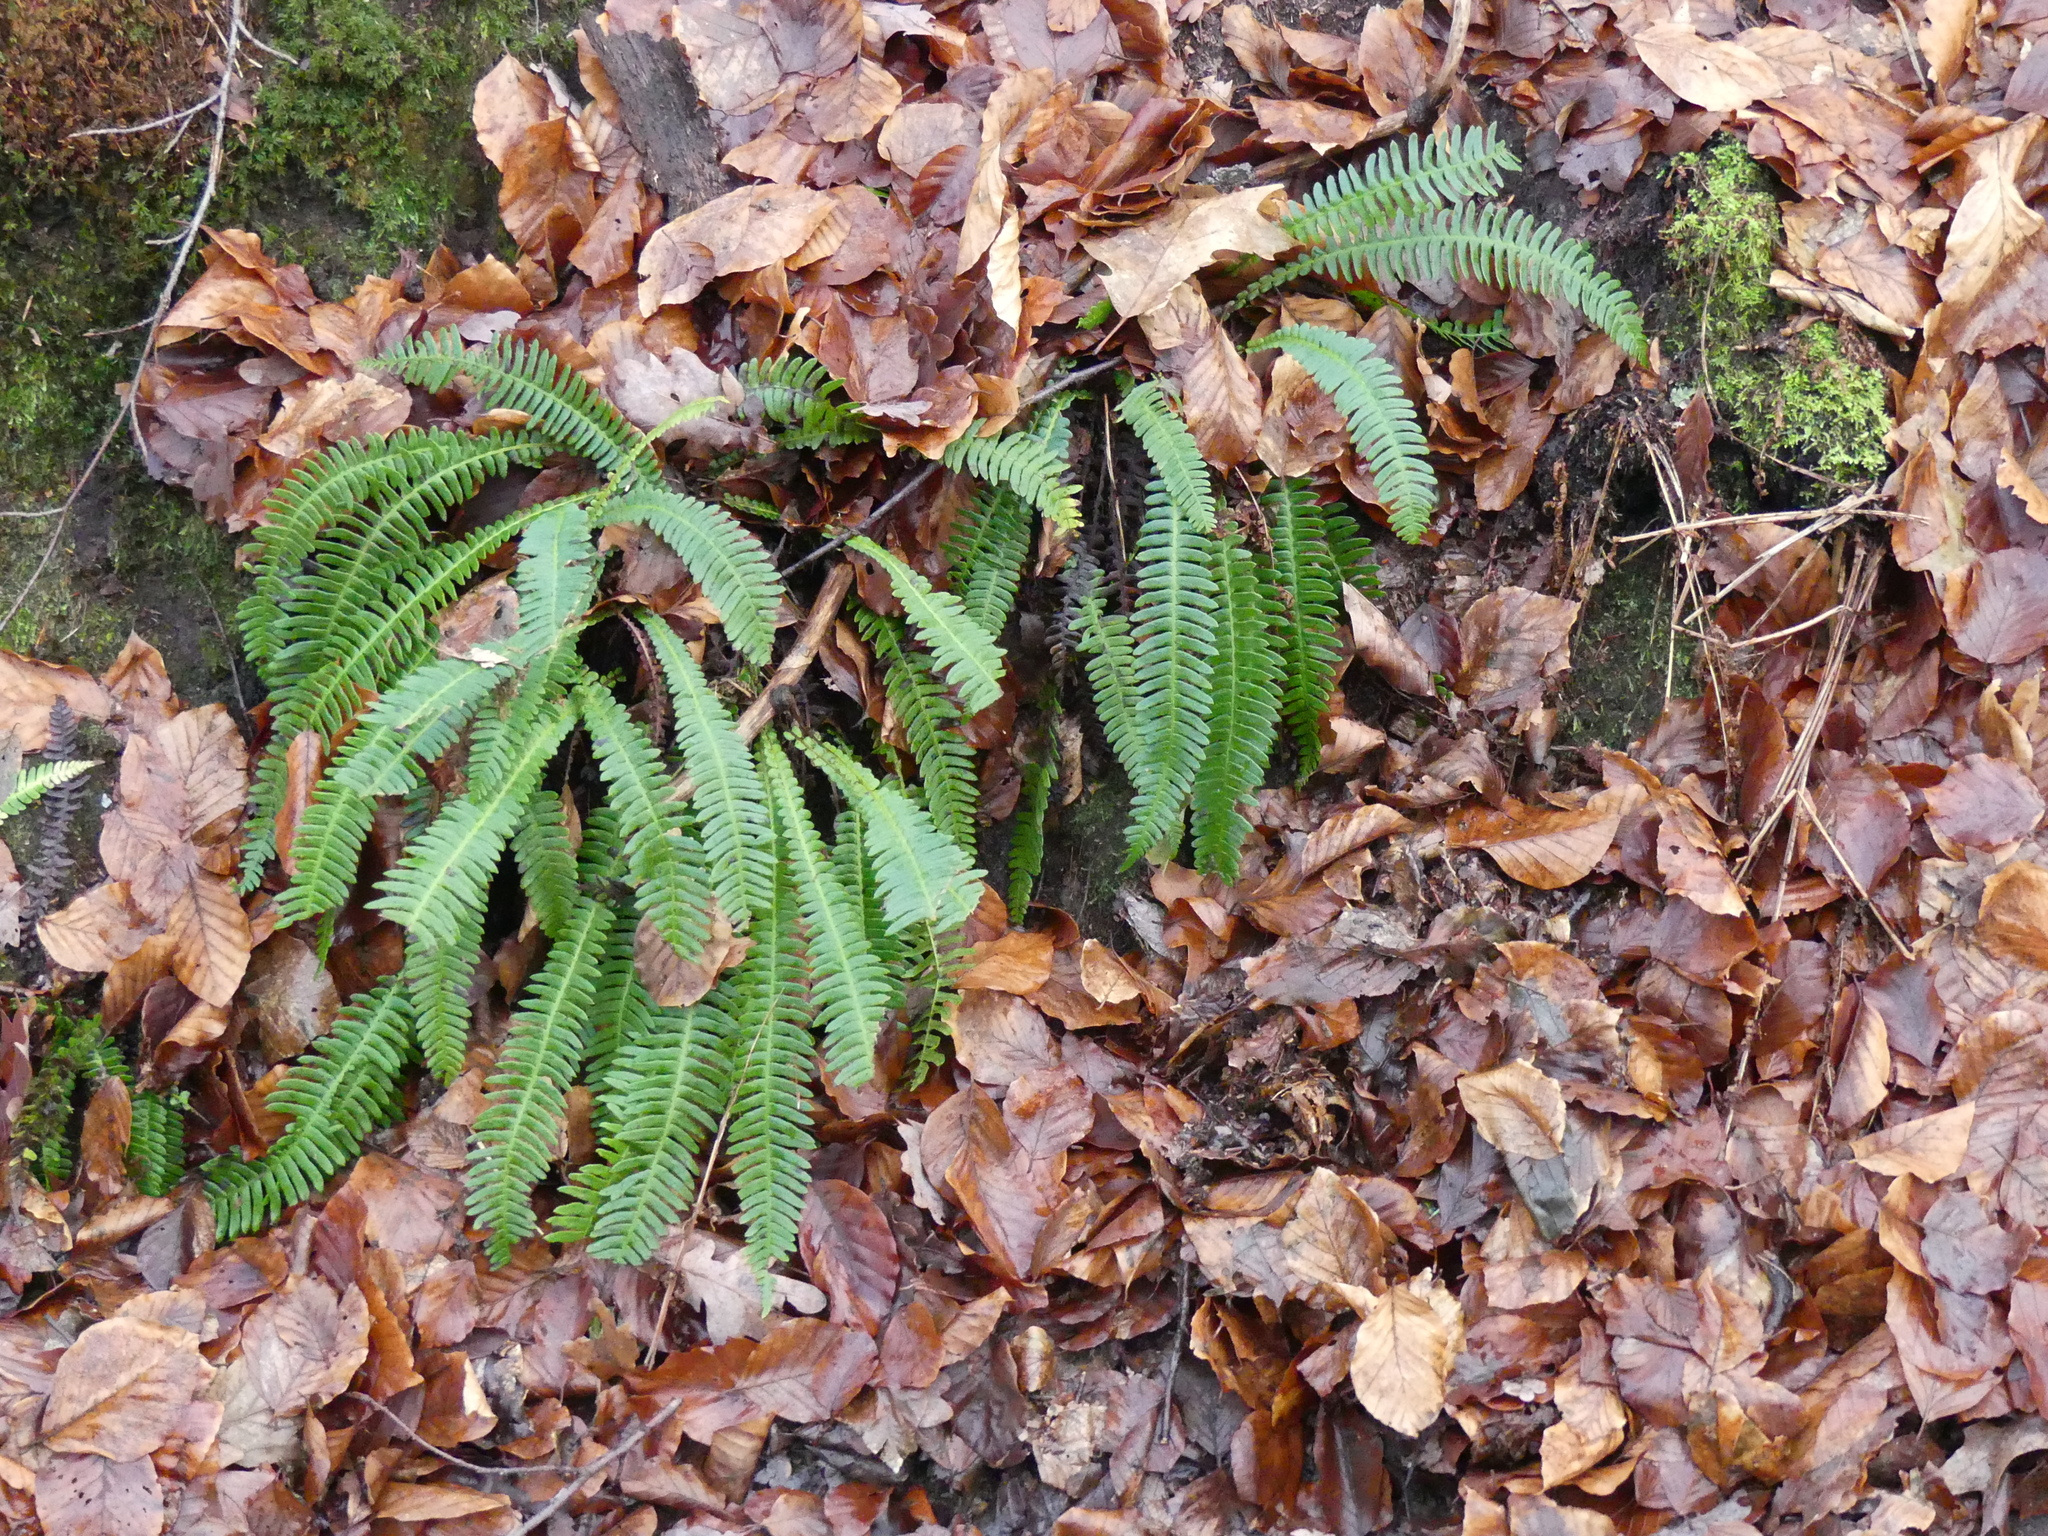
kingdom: Plantae
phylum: Tracheophyta
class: Polypodiopsida
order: Polypodiales
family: Blechnaceae
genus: Struthiopteris
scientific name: Struthiopteris spicant
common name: Deer fern
